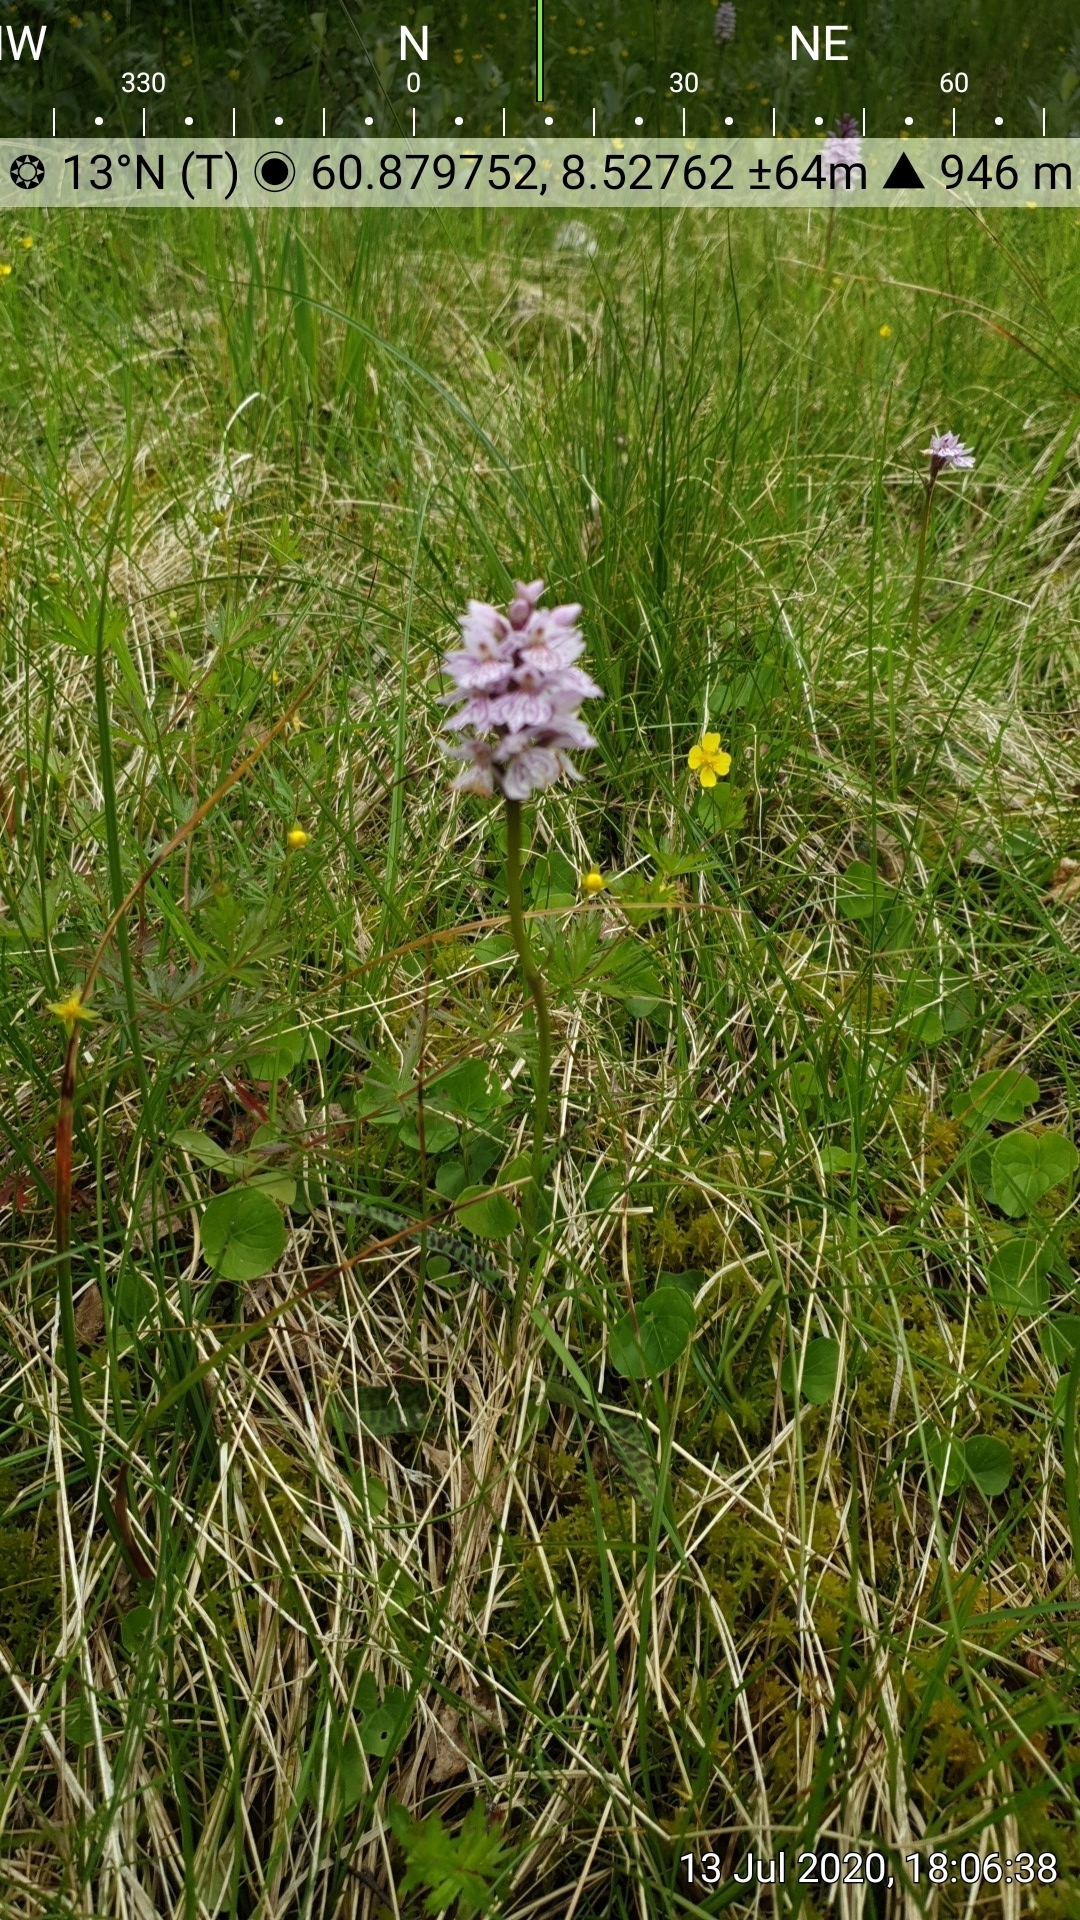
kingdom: Plantae
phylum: Tracheophyta
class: Liliopsida
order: Asparagales
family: Orchidaceae
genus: Dactylorhiza
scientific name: Dactylorhiza maculata
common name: Heath spotted-orchid
